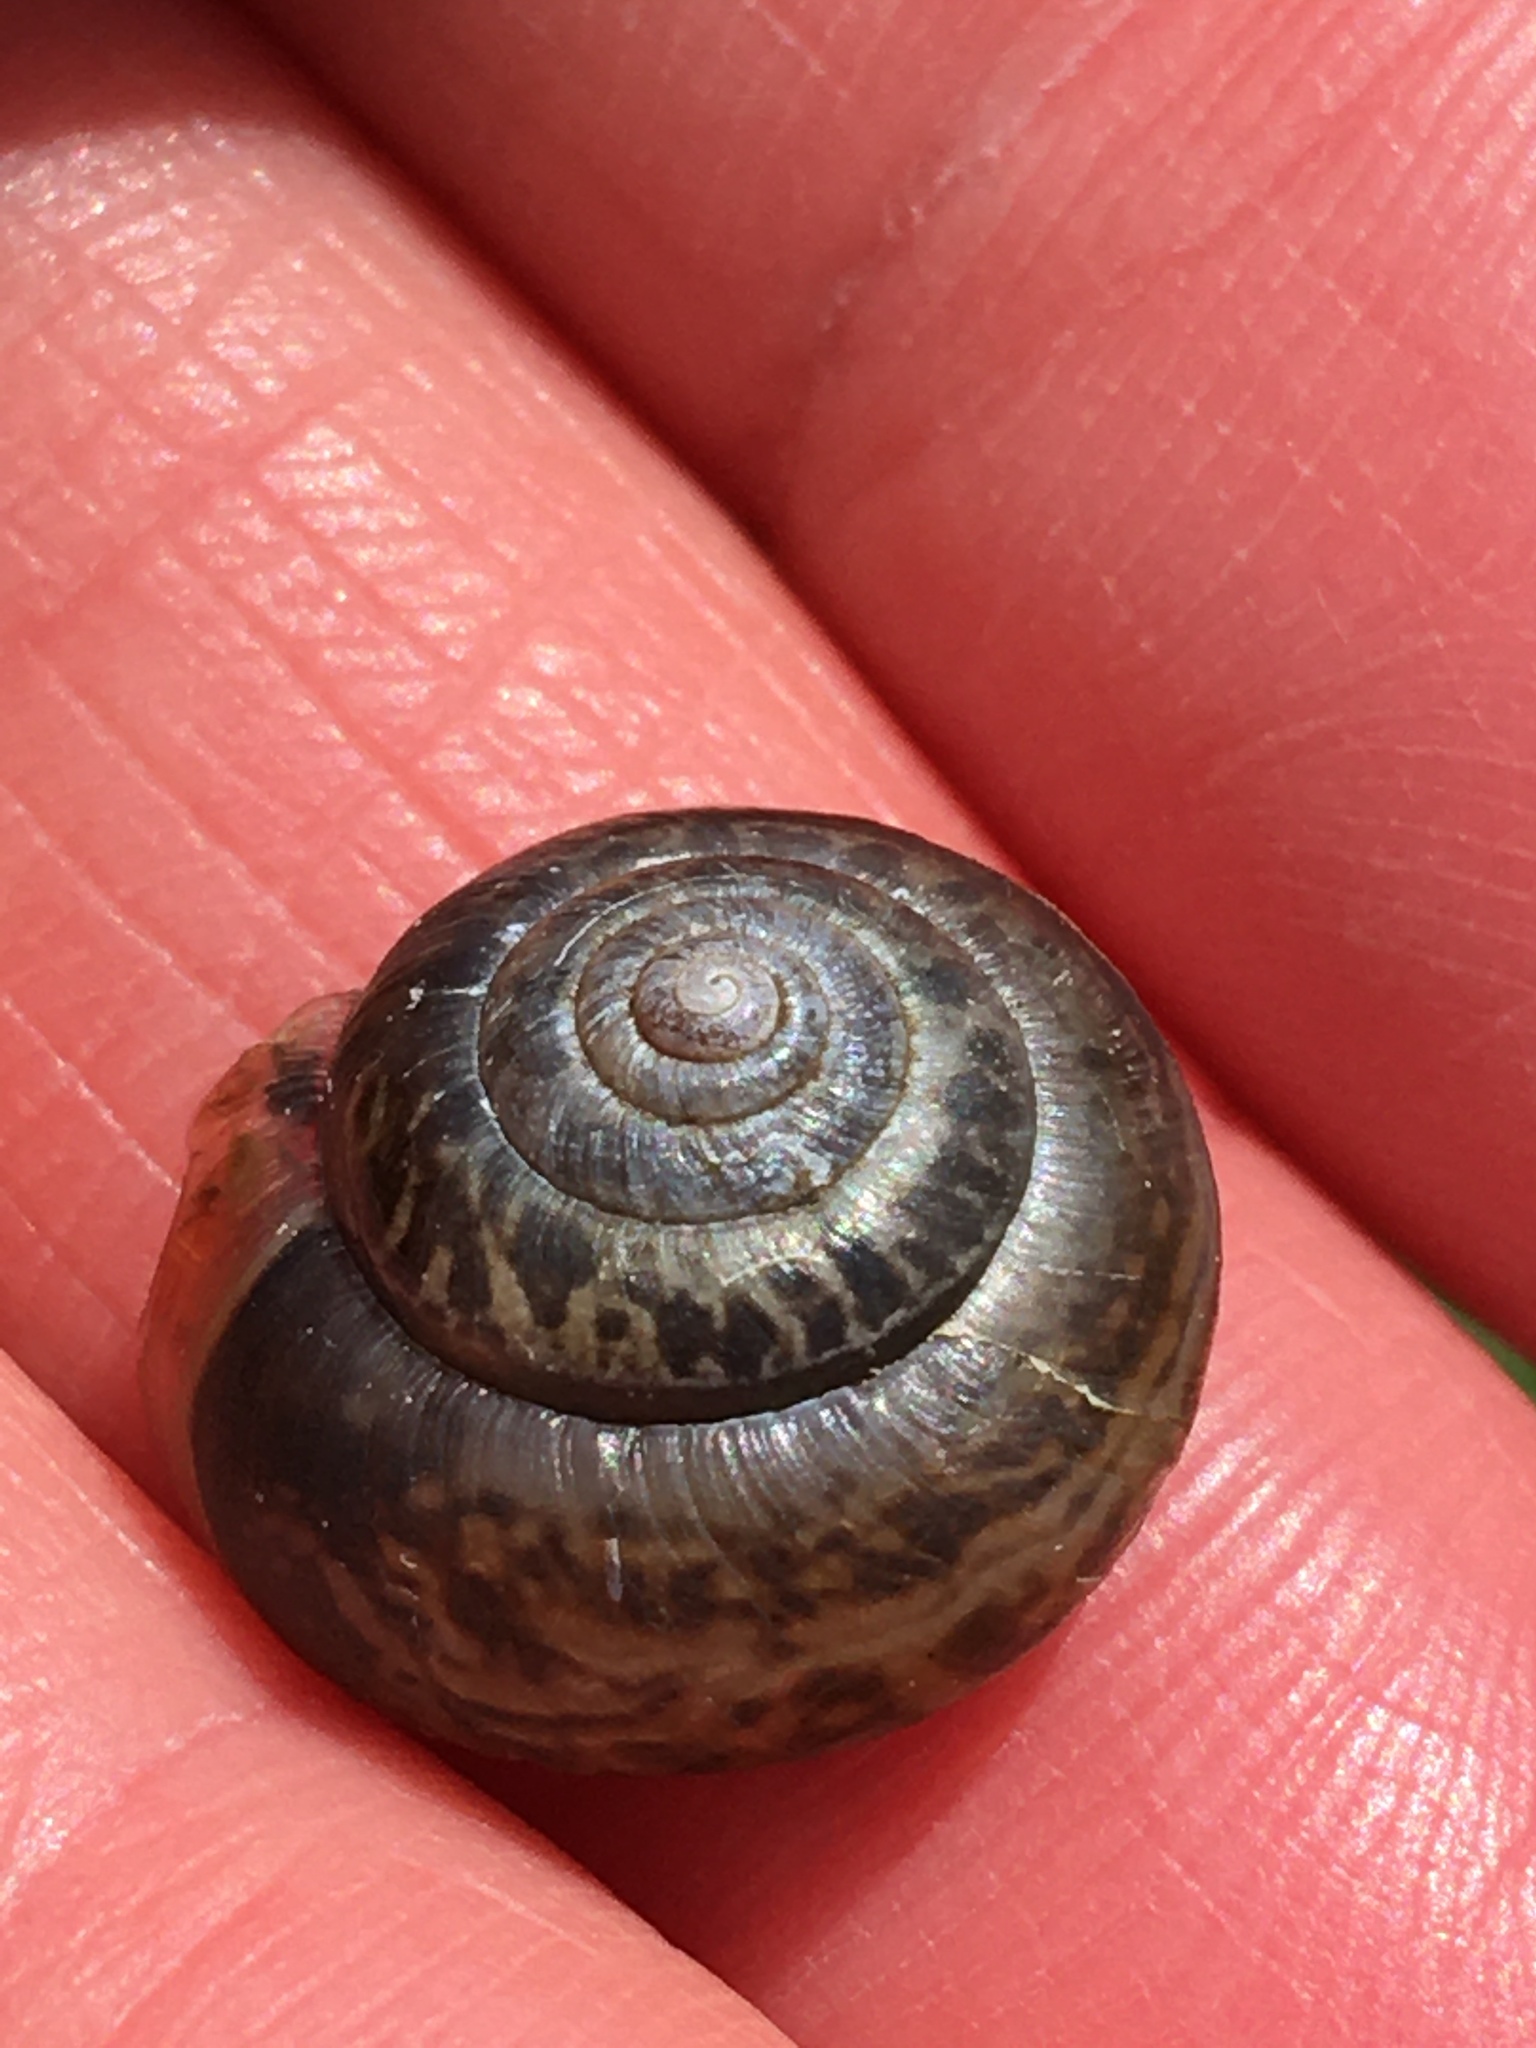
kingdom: Animalia
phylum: Mollusca
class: Gastropoda
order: Stylommatophora
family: Hygromiidae
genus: Monacha
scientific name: Monacha cantiana
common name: Kentish snail
